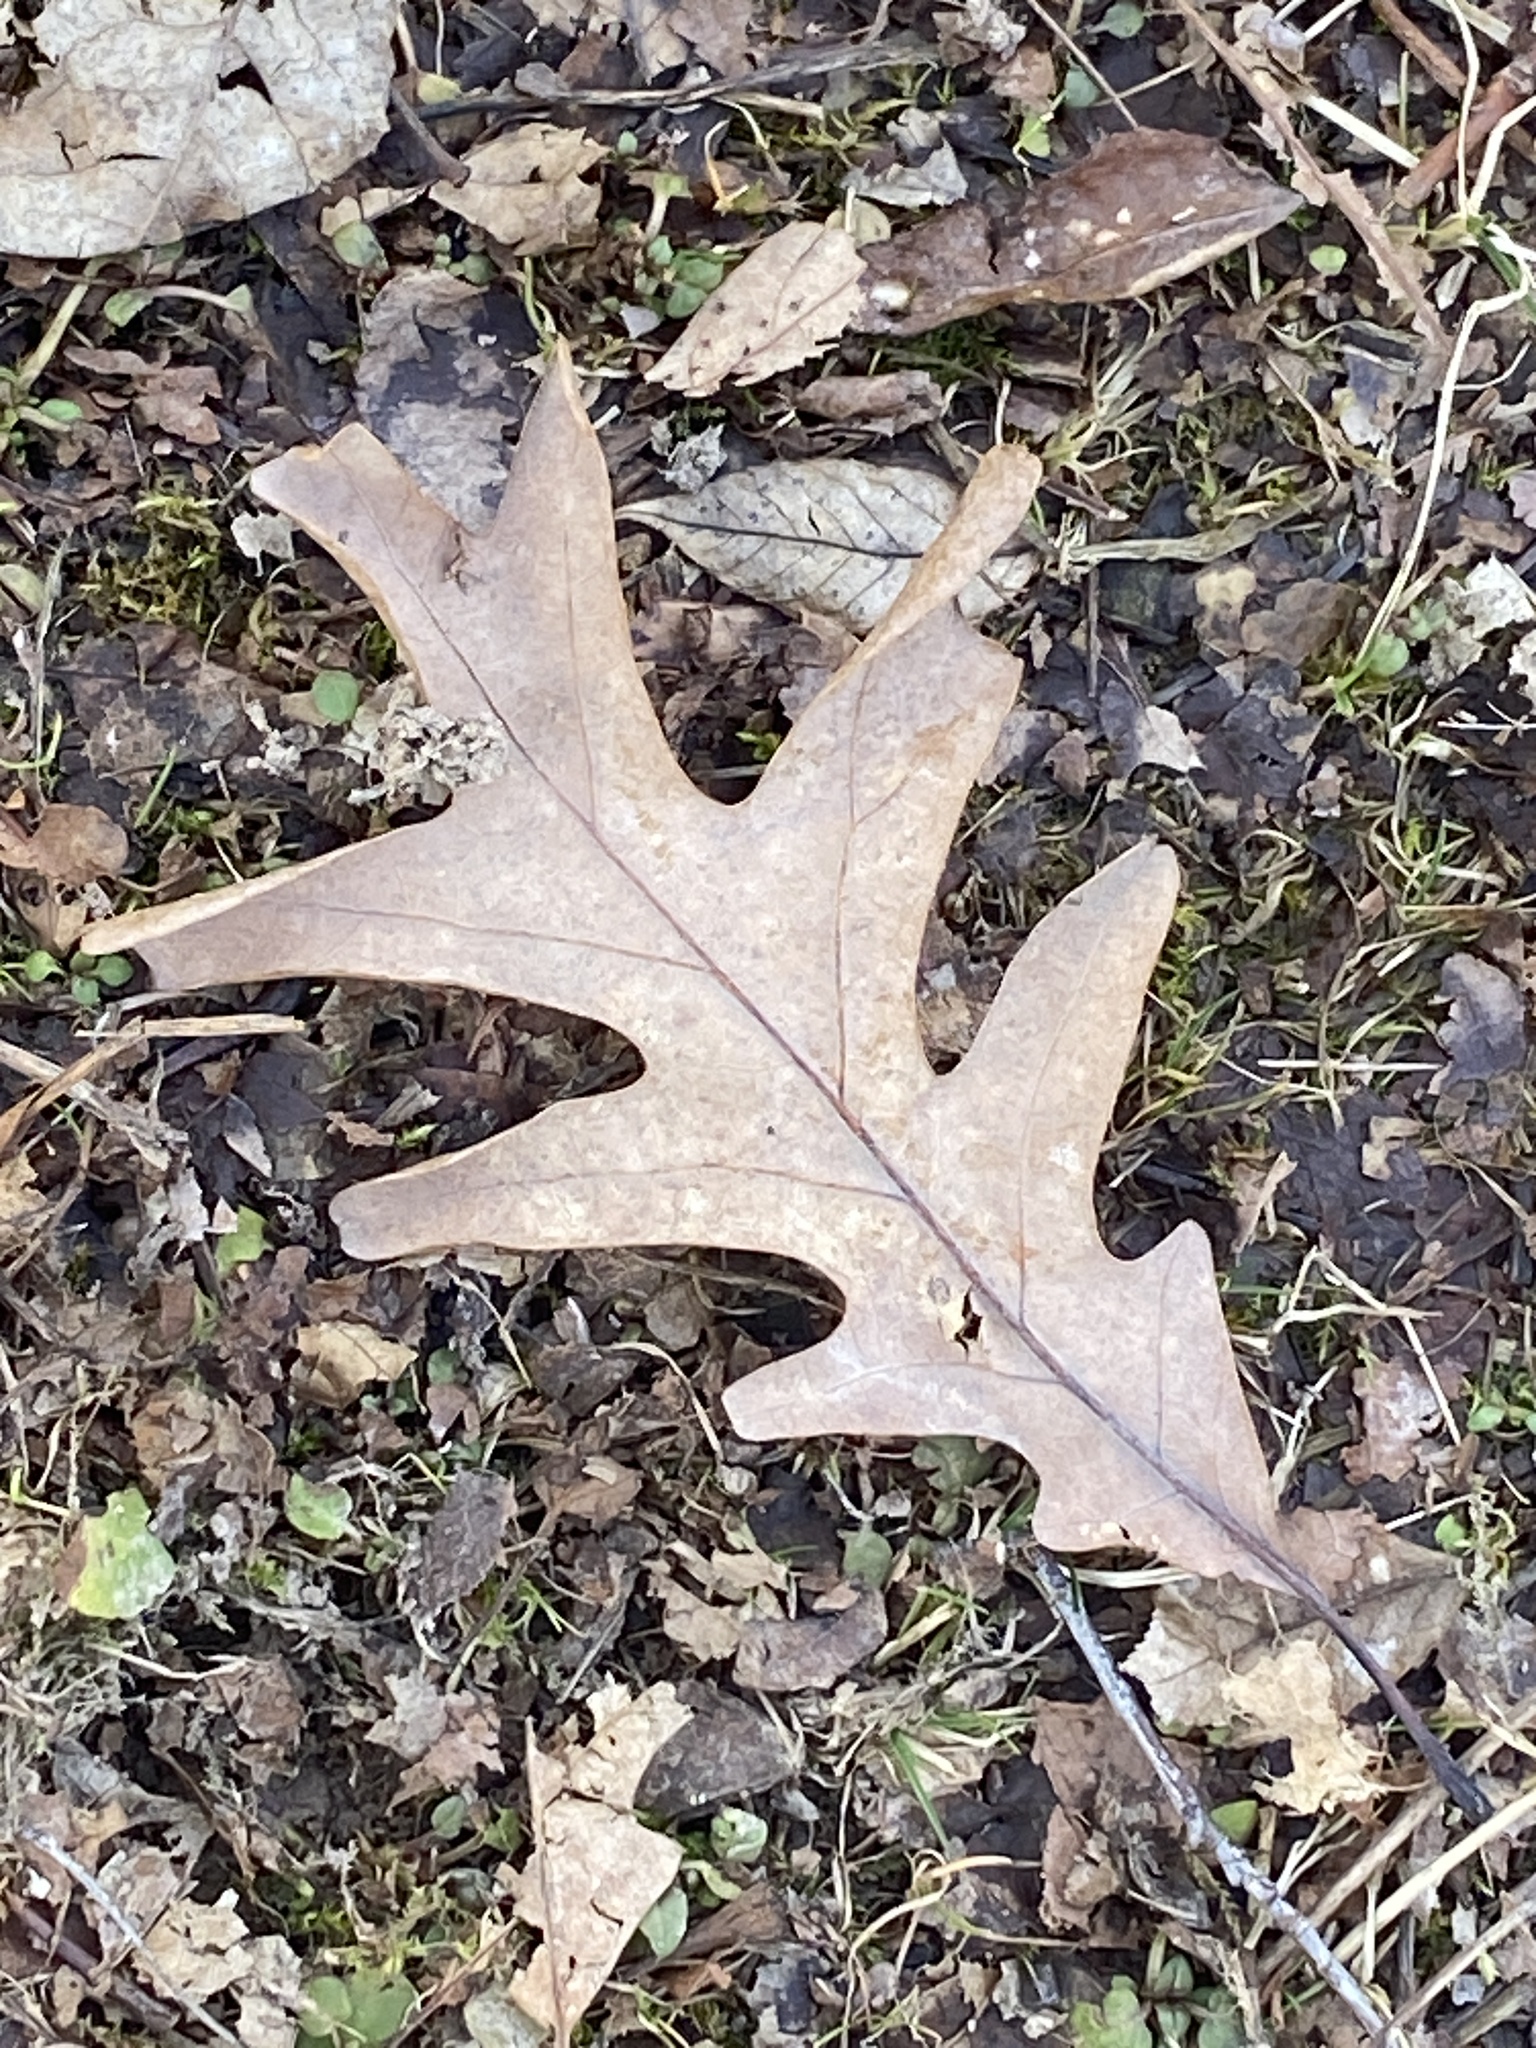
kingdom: Plantae
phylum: Tracheophyta
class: Magnoliopsida
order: Fagales
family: Fagaceae
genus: Quercus
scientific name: Quercus alba
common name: White oak
